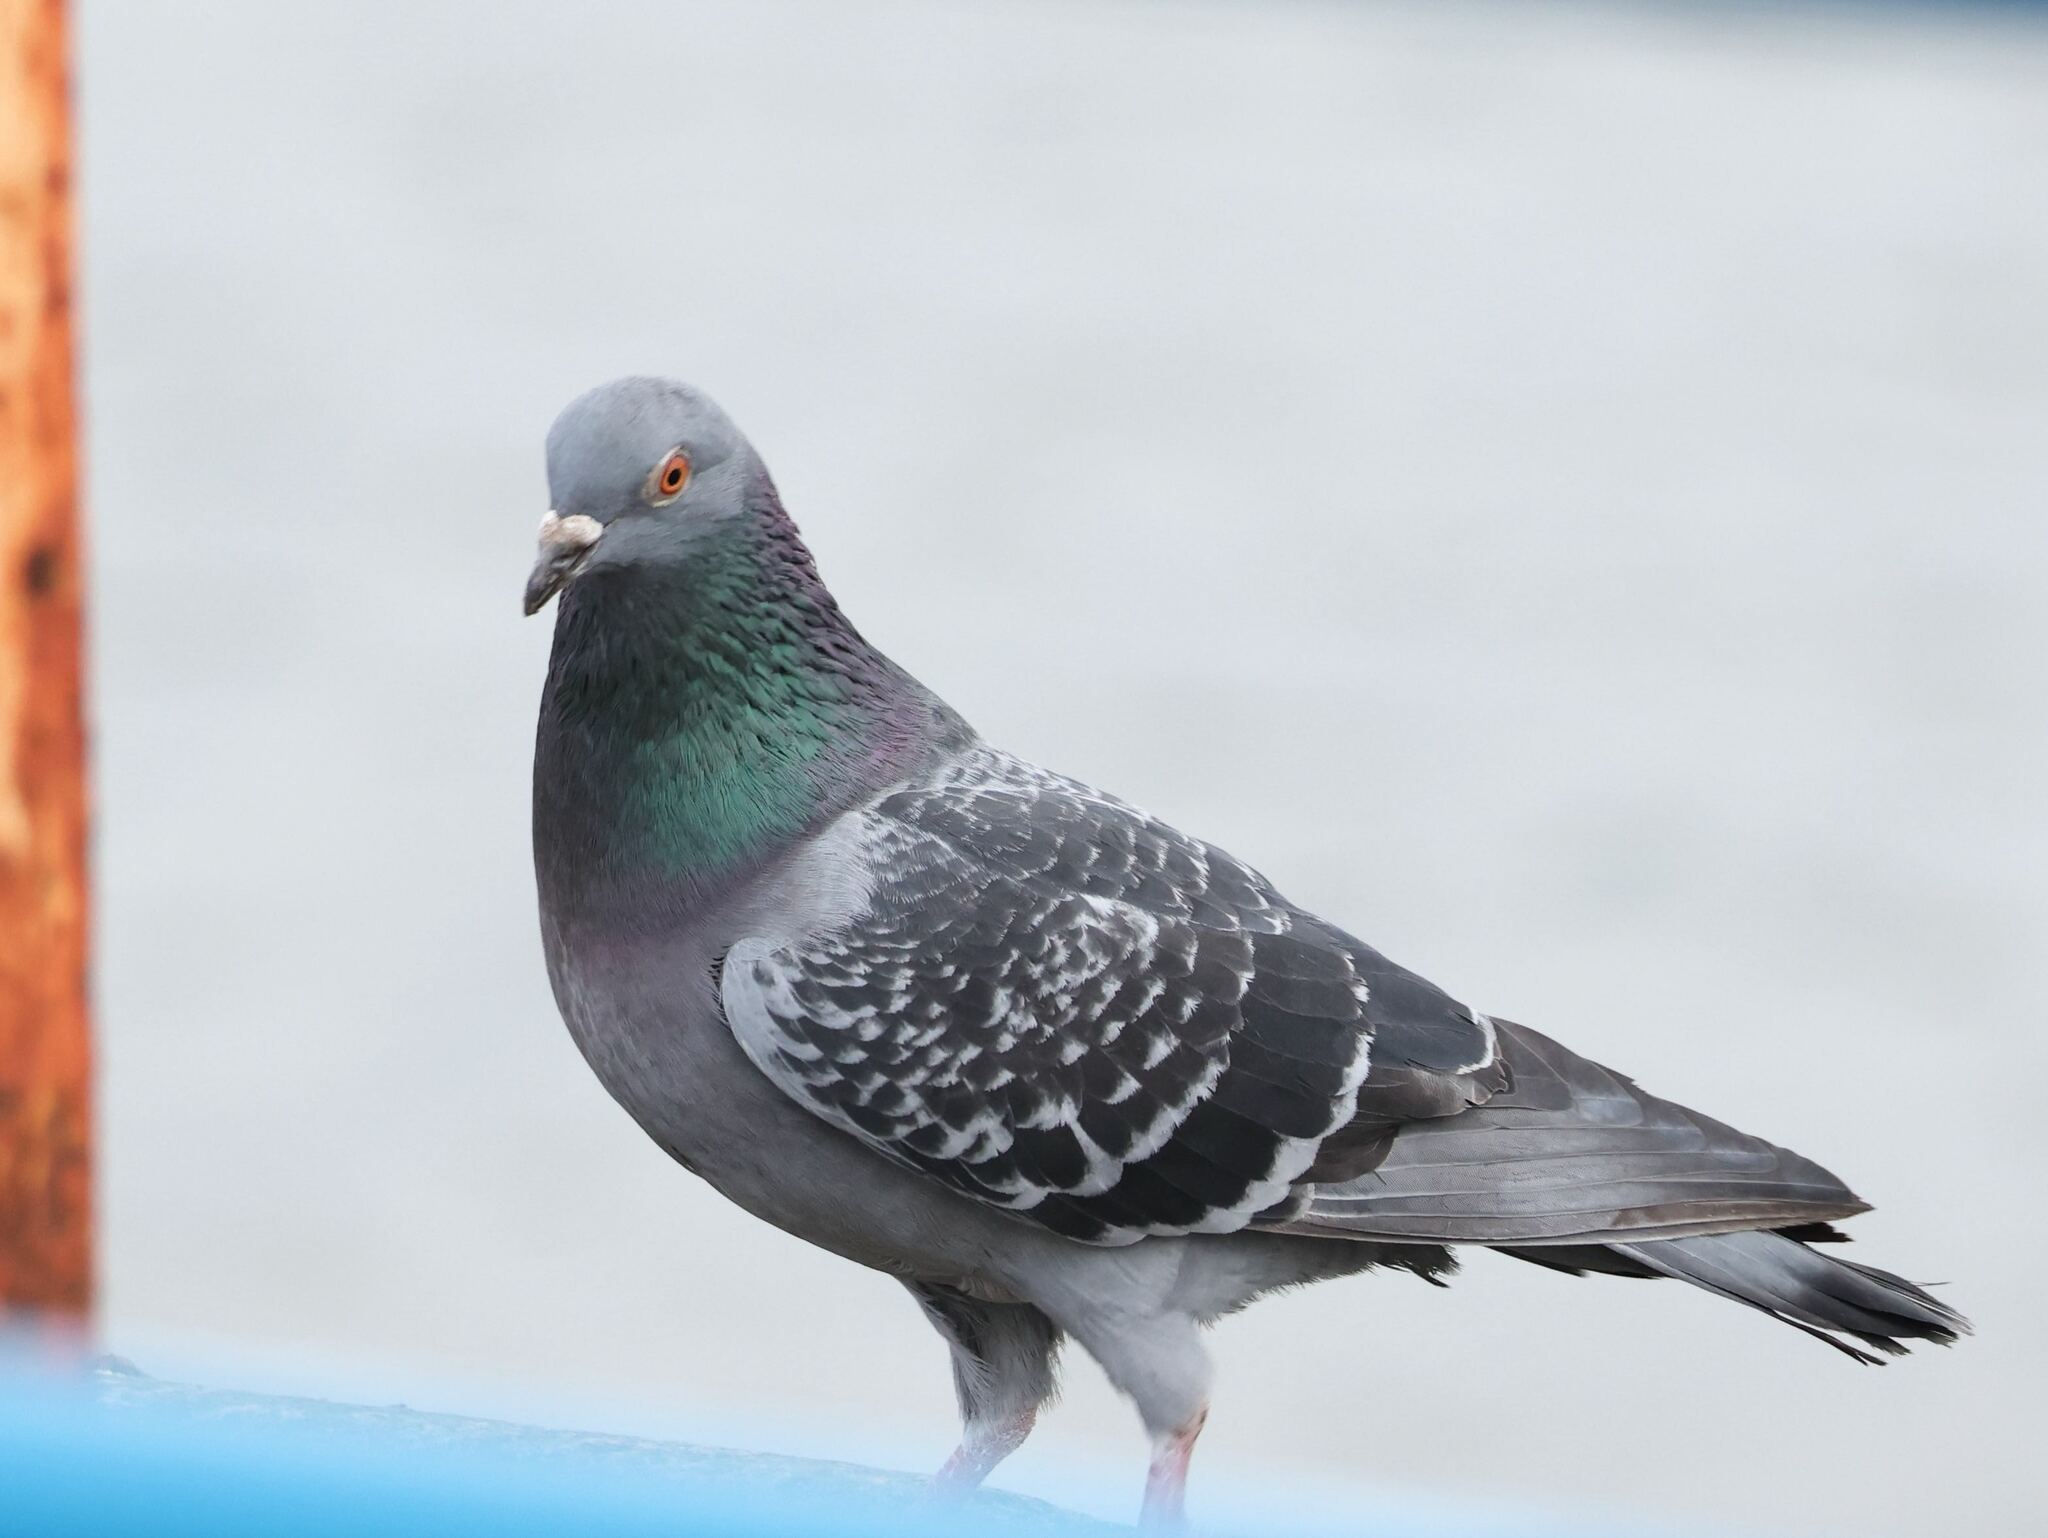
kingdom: Animalia
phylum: Chordata
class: Aves
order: Columbiformes
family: Columbidae
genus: Columba
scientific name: Columba livia
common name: Rock pigeon
